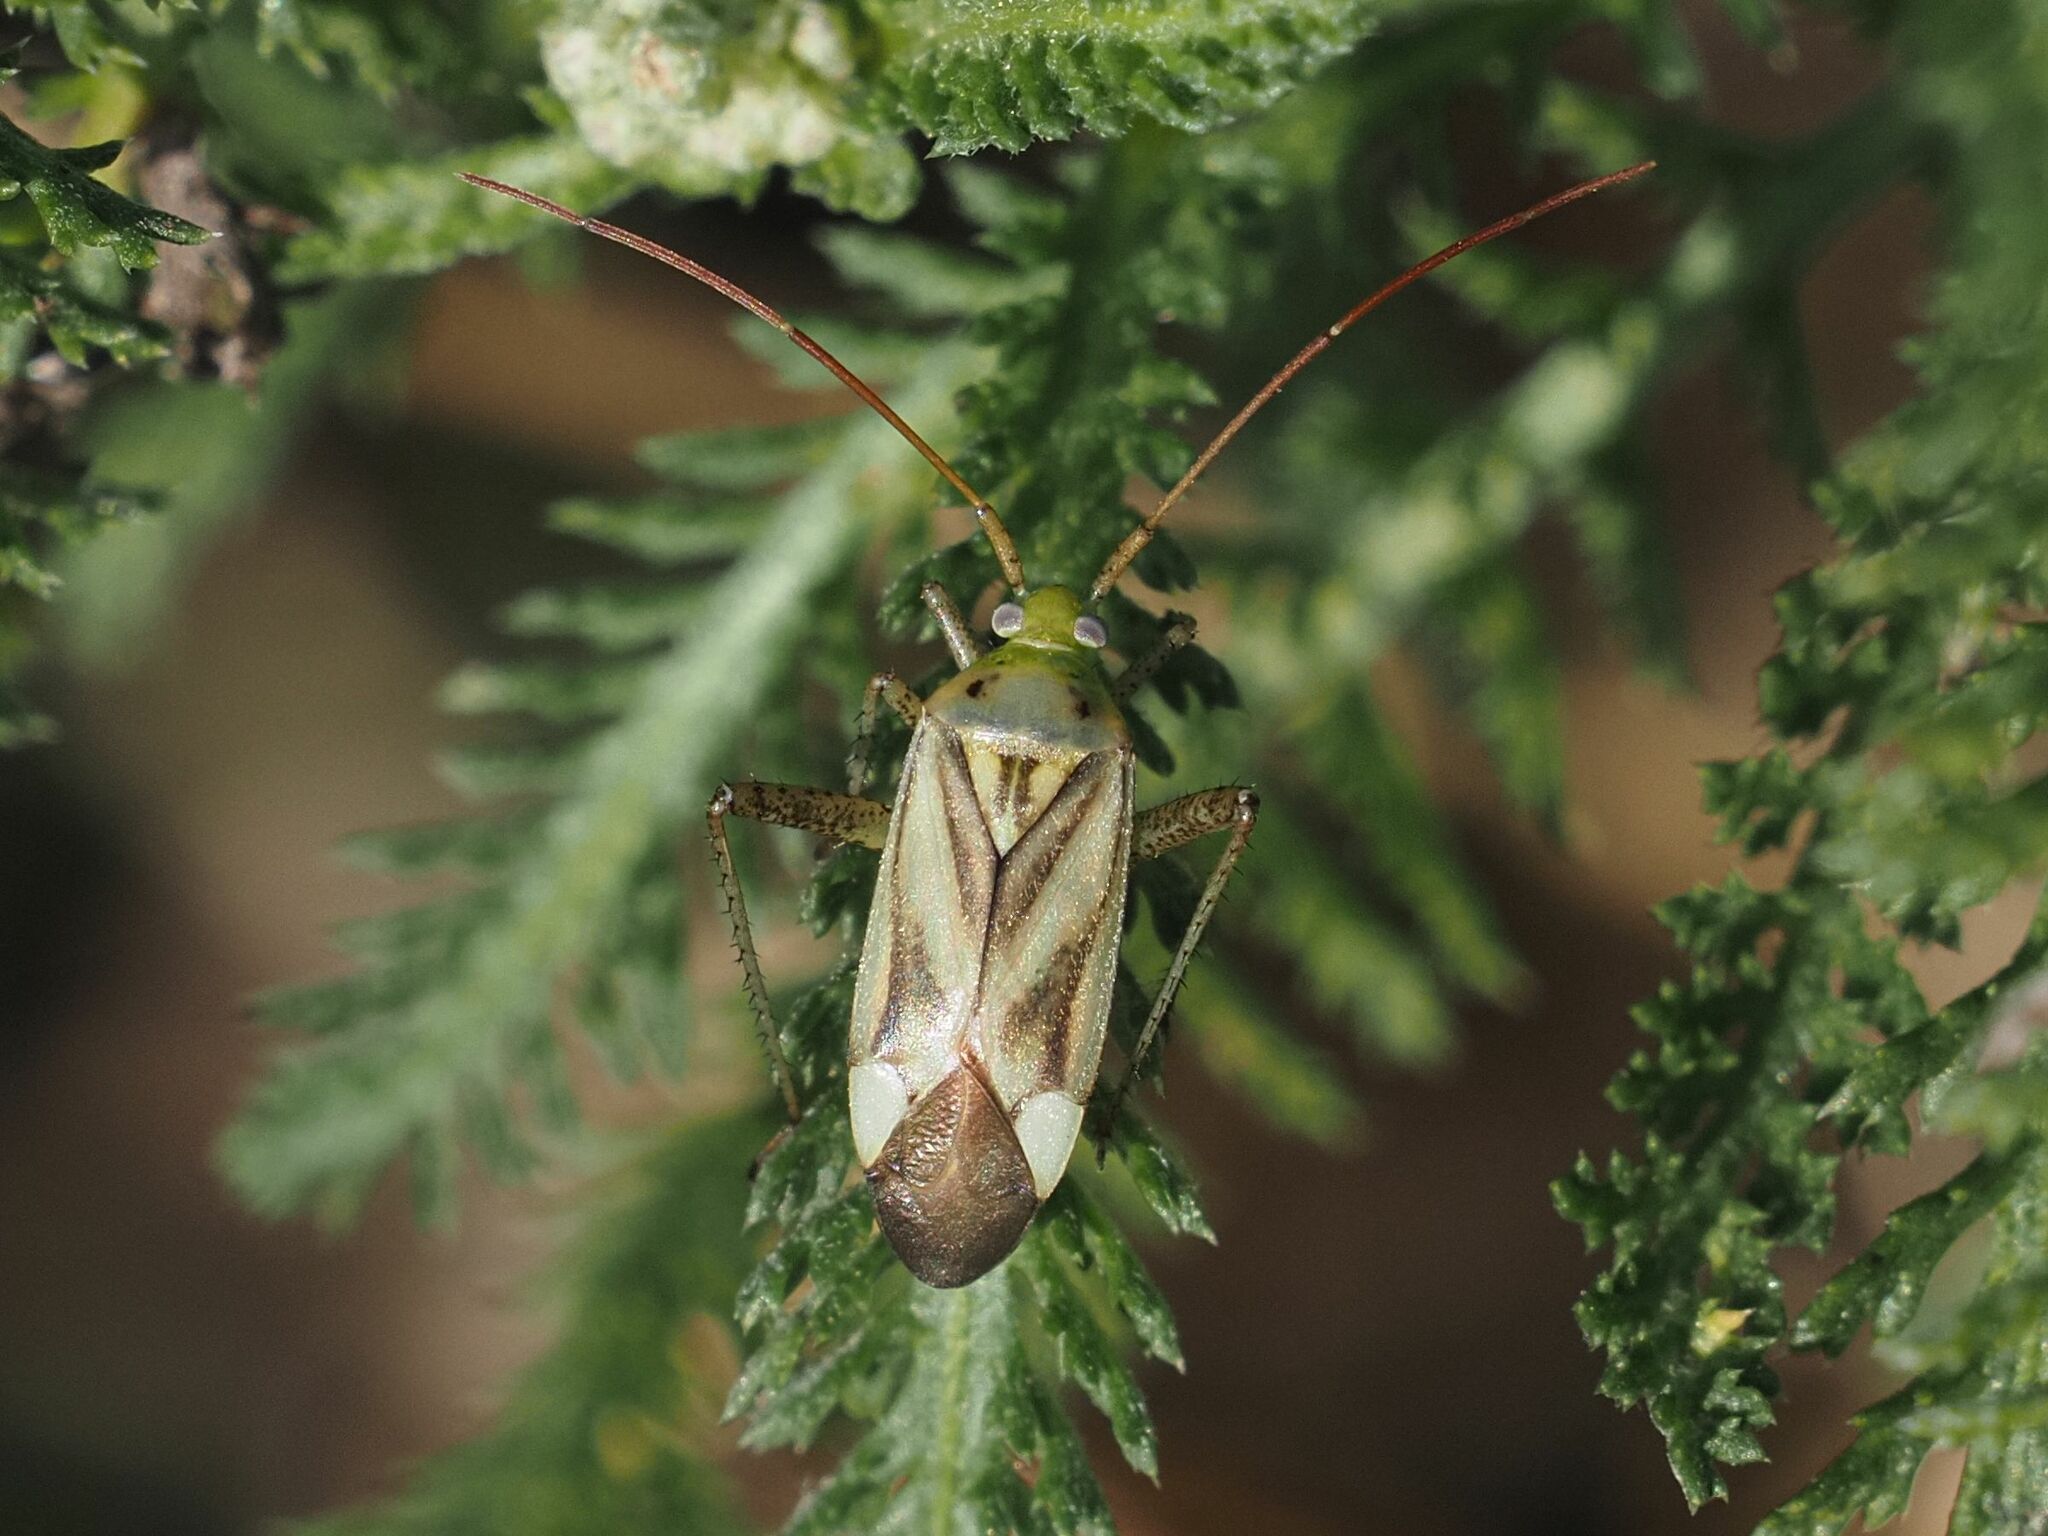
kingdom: Animalia
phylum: Arthropoda
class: Insecta
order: Hemiptera
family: Miridae
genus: Adelphocoris
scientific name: Adelphocoris lineolatus
